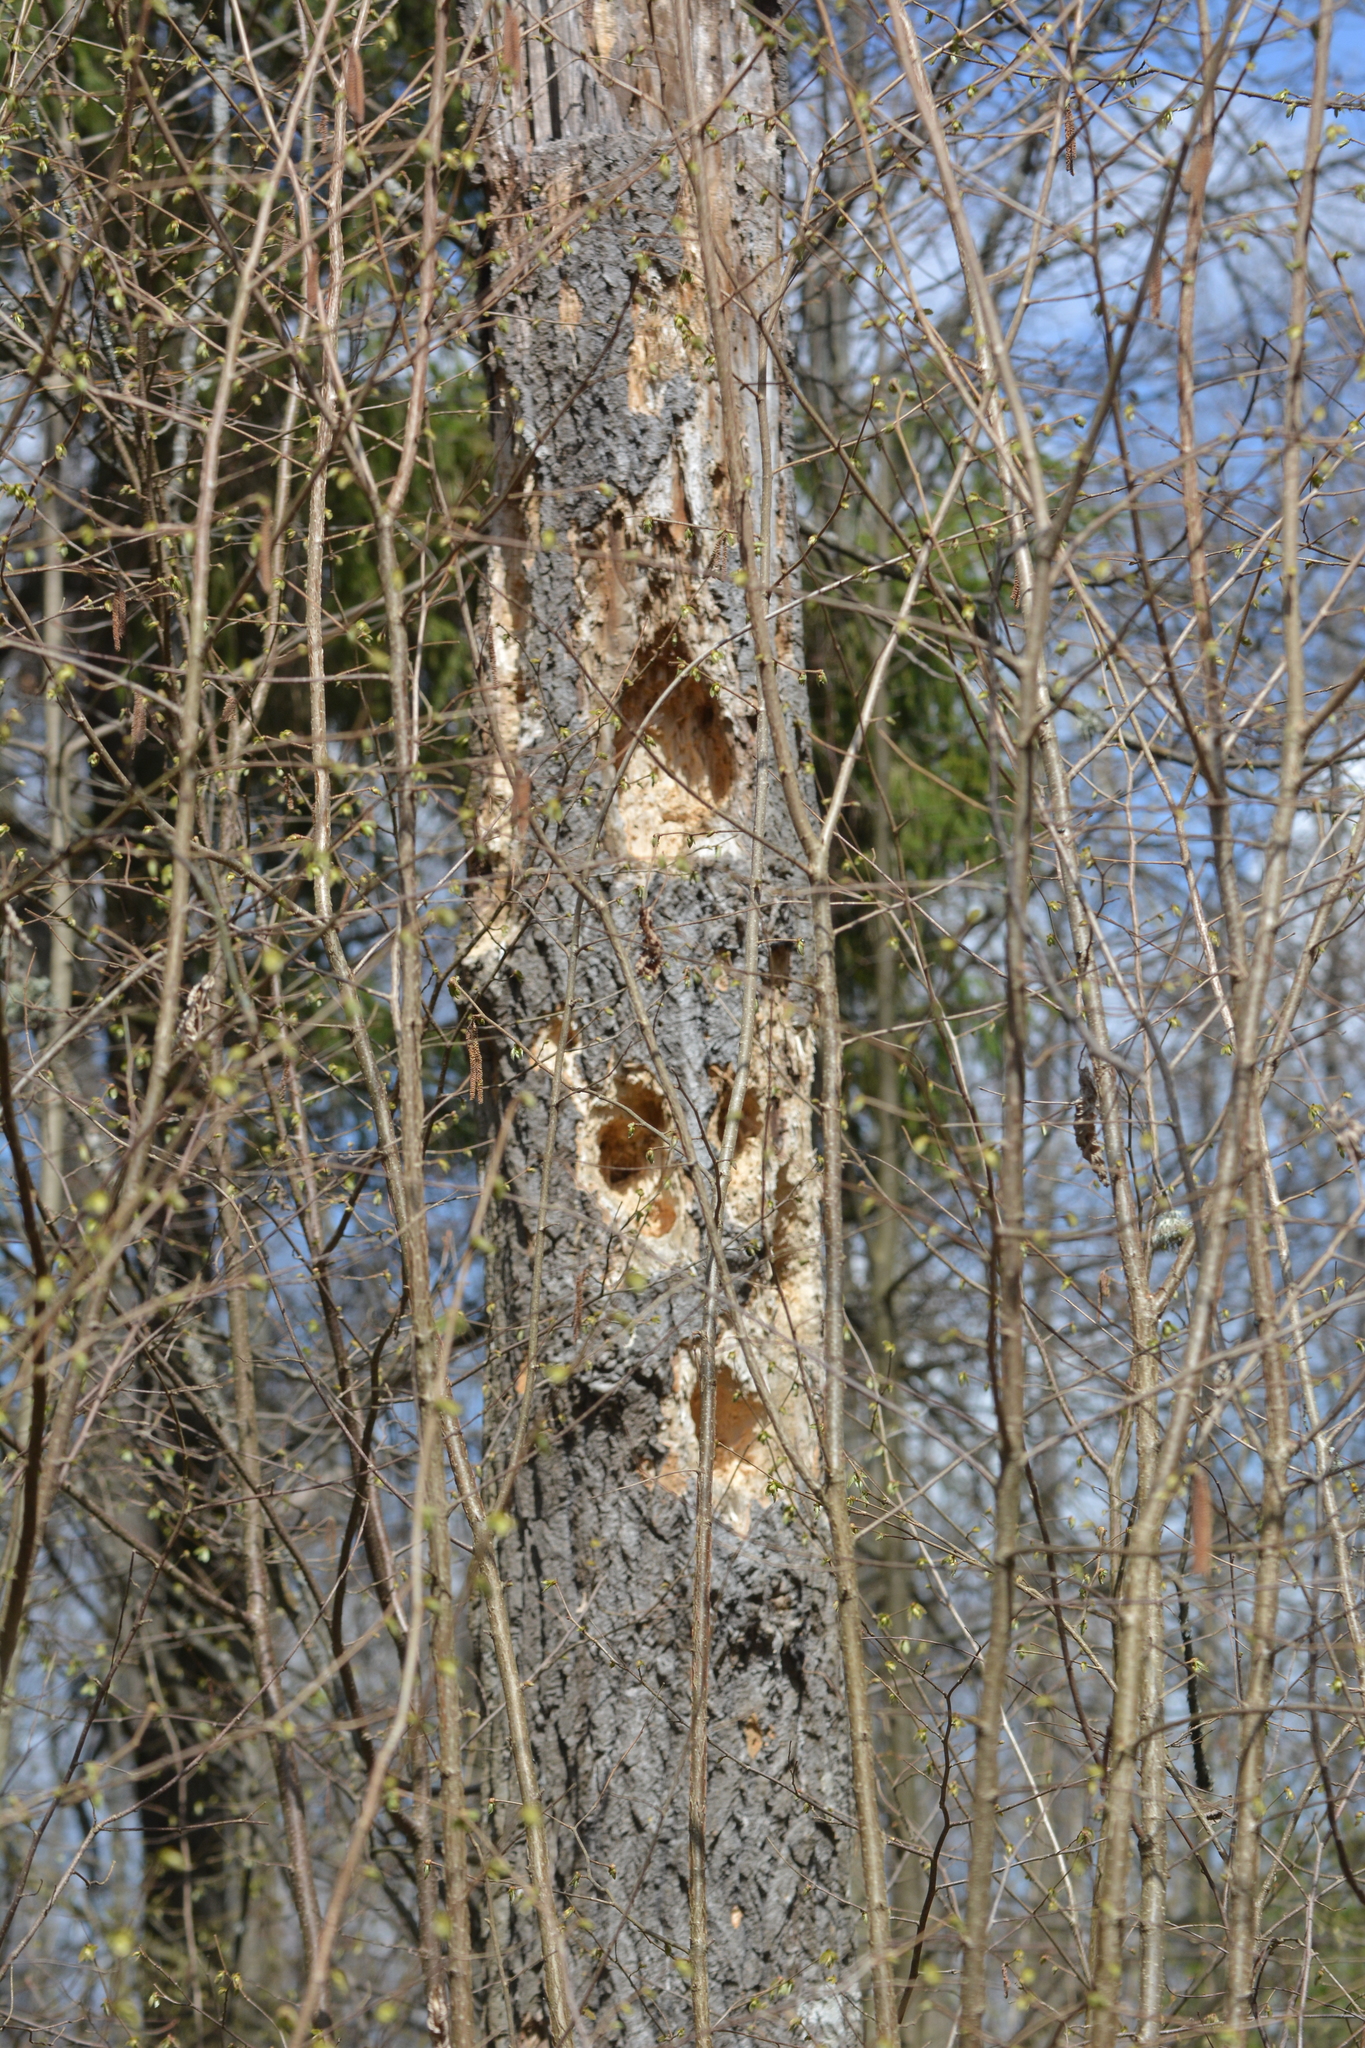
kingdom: Animalia
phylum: Chordata
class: Aves
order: Piciformes
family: Picidae
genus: Dryocopus
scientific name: Dryocopus martius
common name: Black woodpecker
